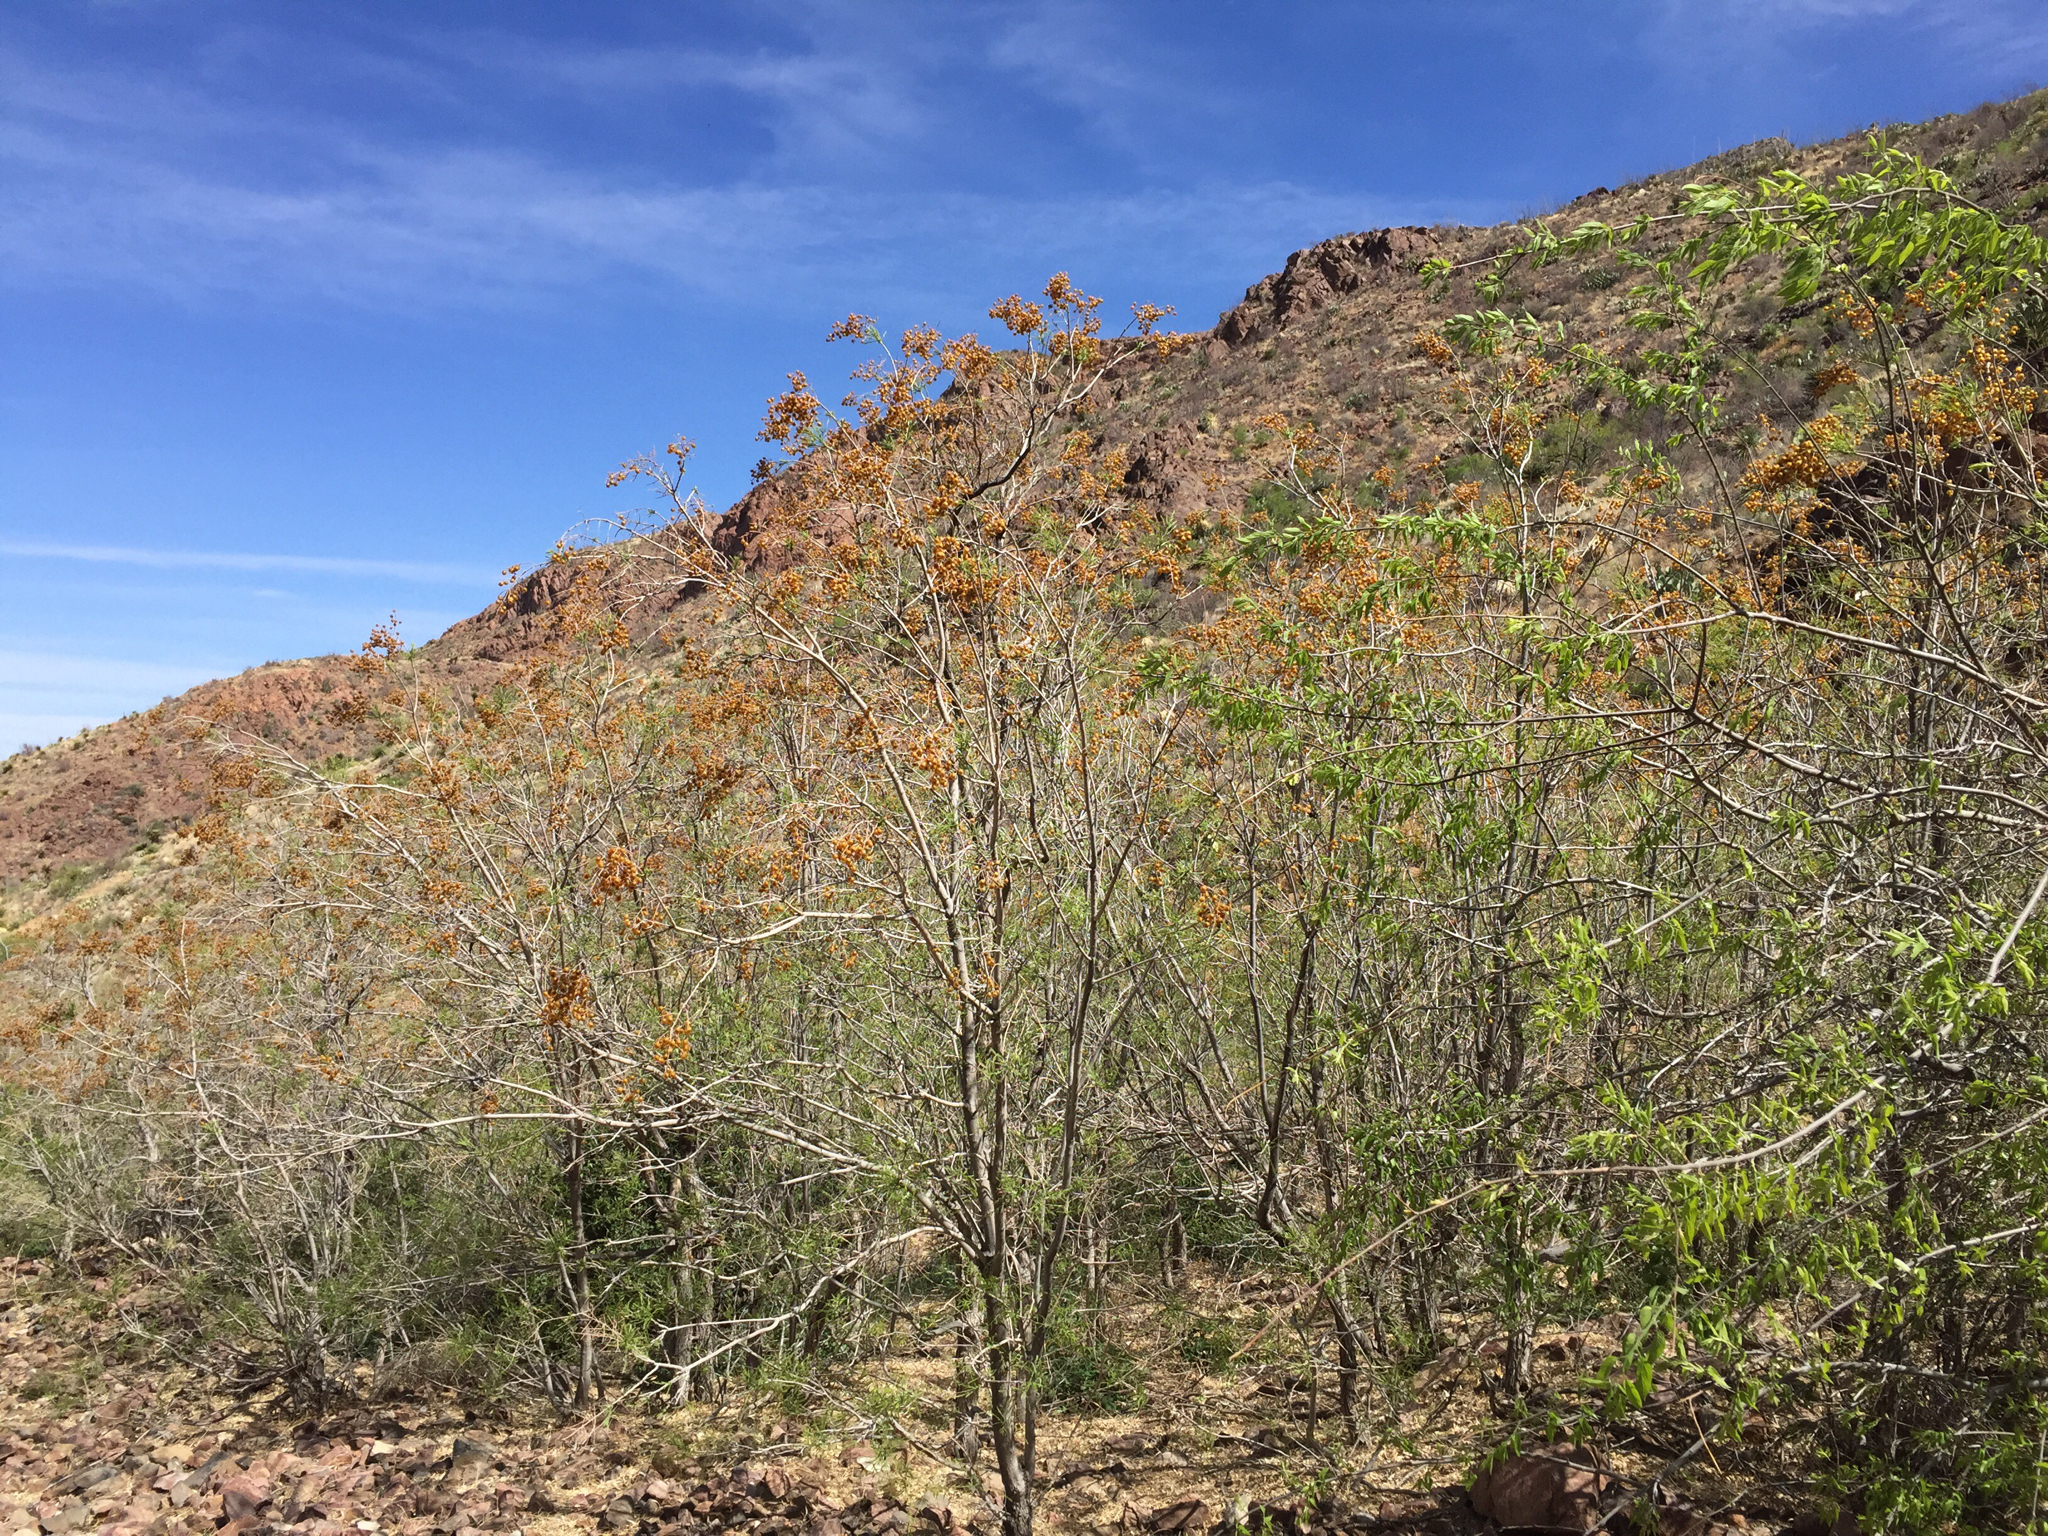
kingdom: Plantae
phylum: Tracheophyta
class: Magnoliopsida
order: Sapindales
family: Sapindaceae
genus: Sapindus
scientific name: Sapindus drummondii
